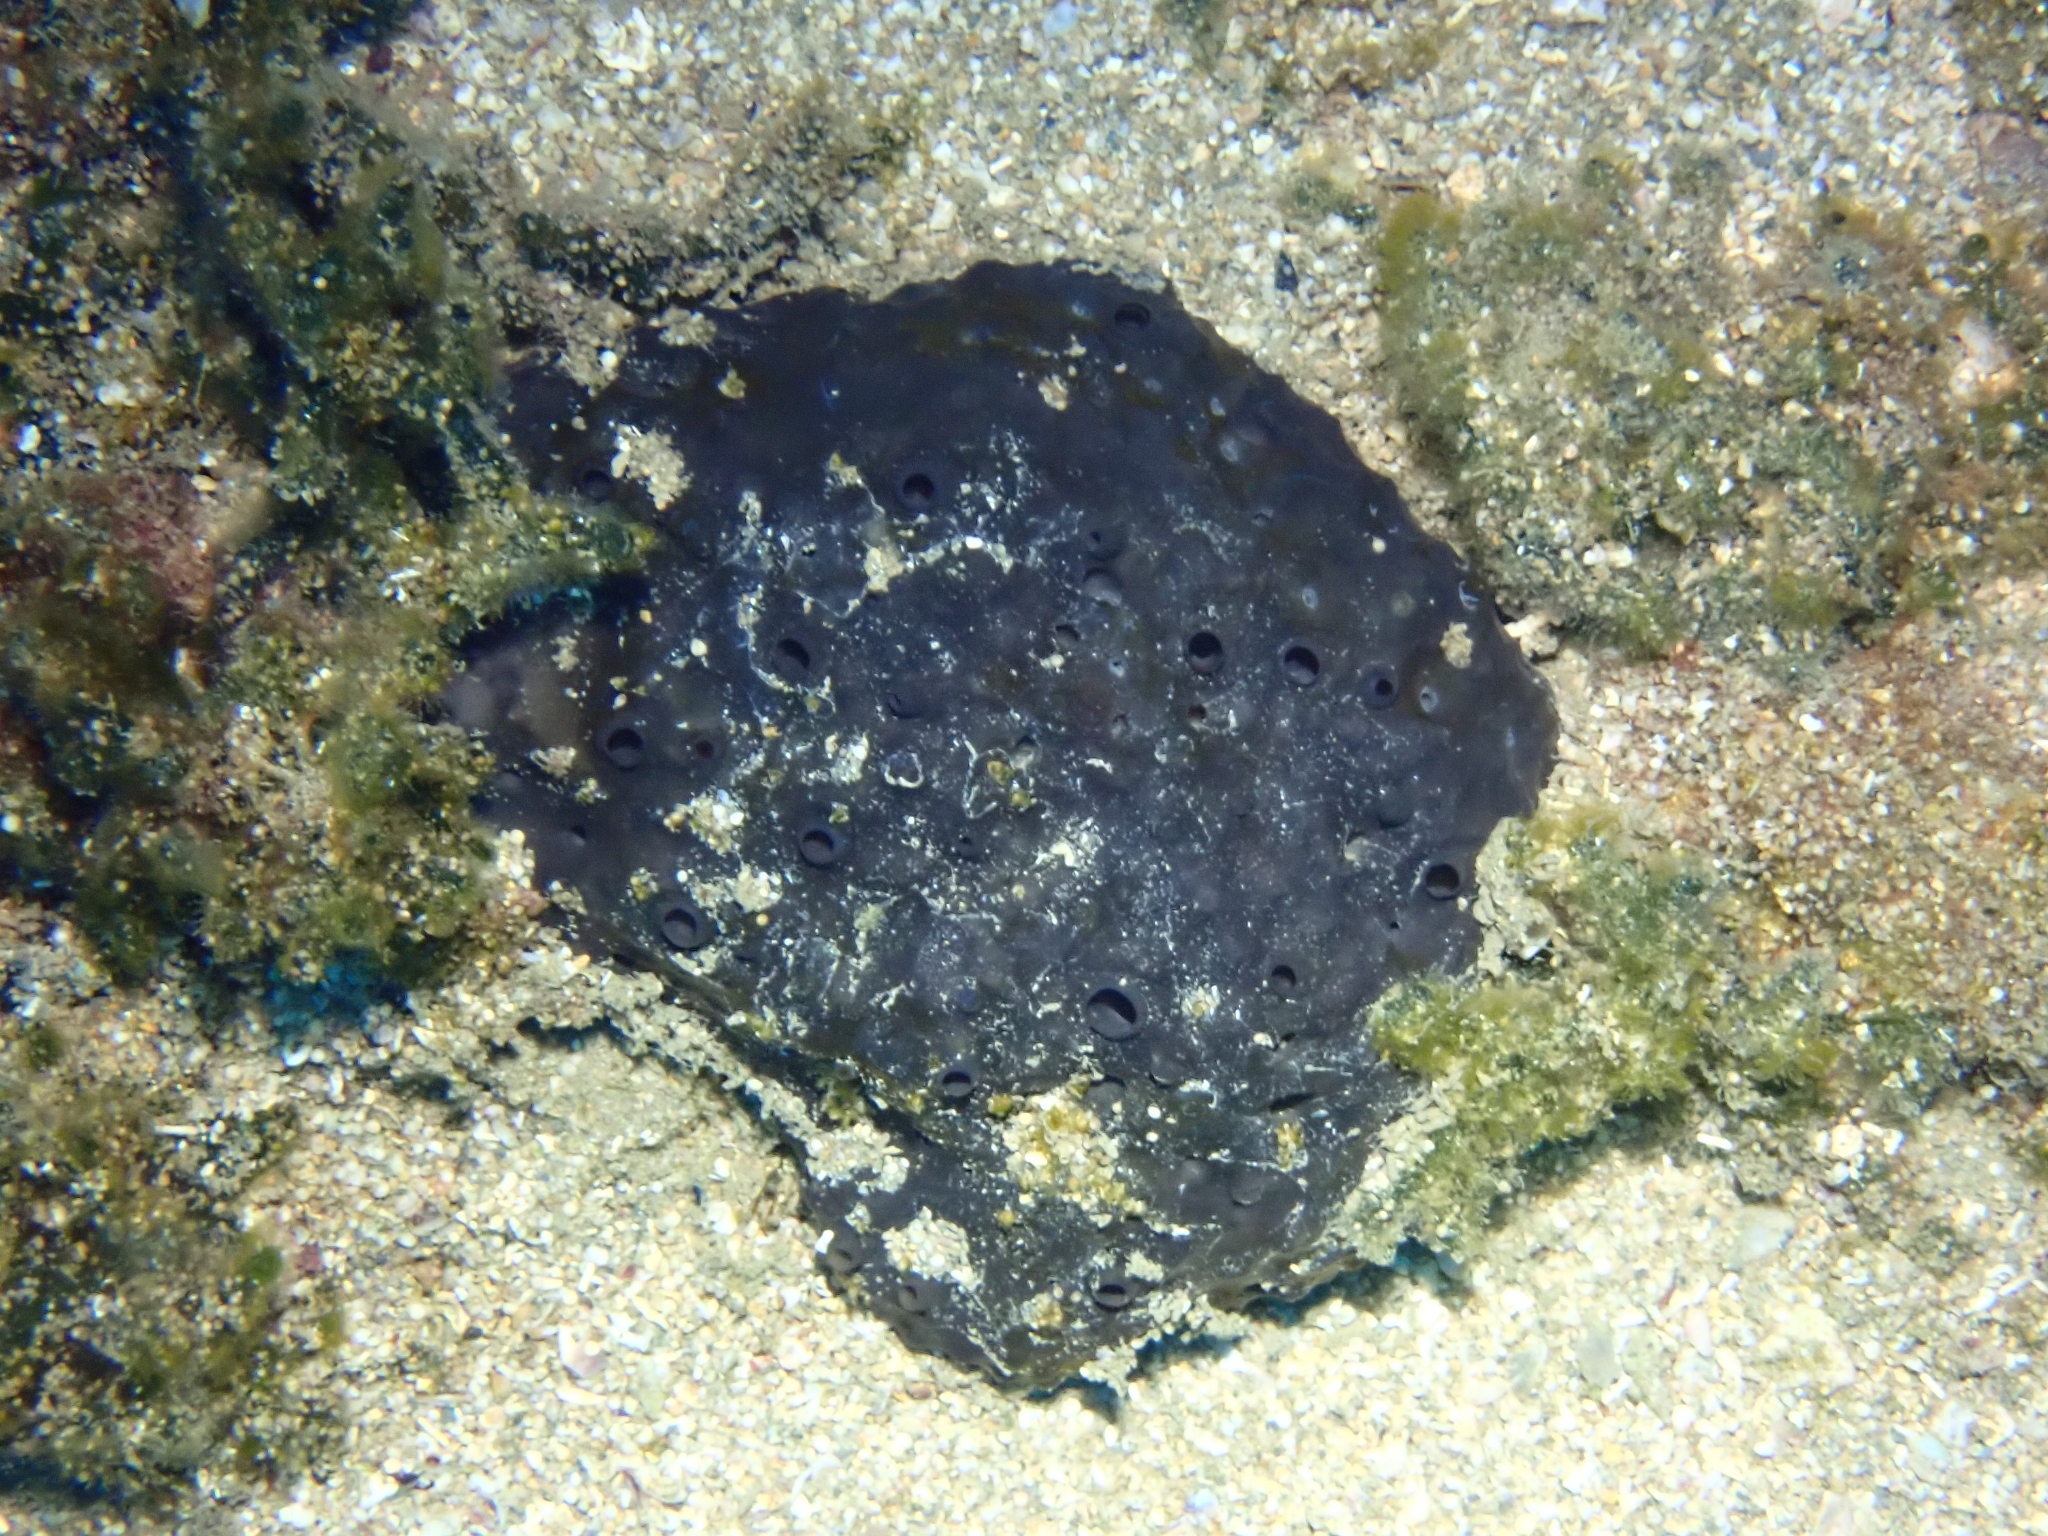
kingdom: Animalia
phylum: Porifera
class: Demospongiae
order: Dictyoceratida
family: Irciniidae
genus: Sarcotragus
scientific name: Sarcotragus spinosulus
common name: Black leather sponge
